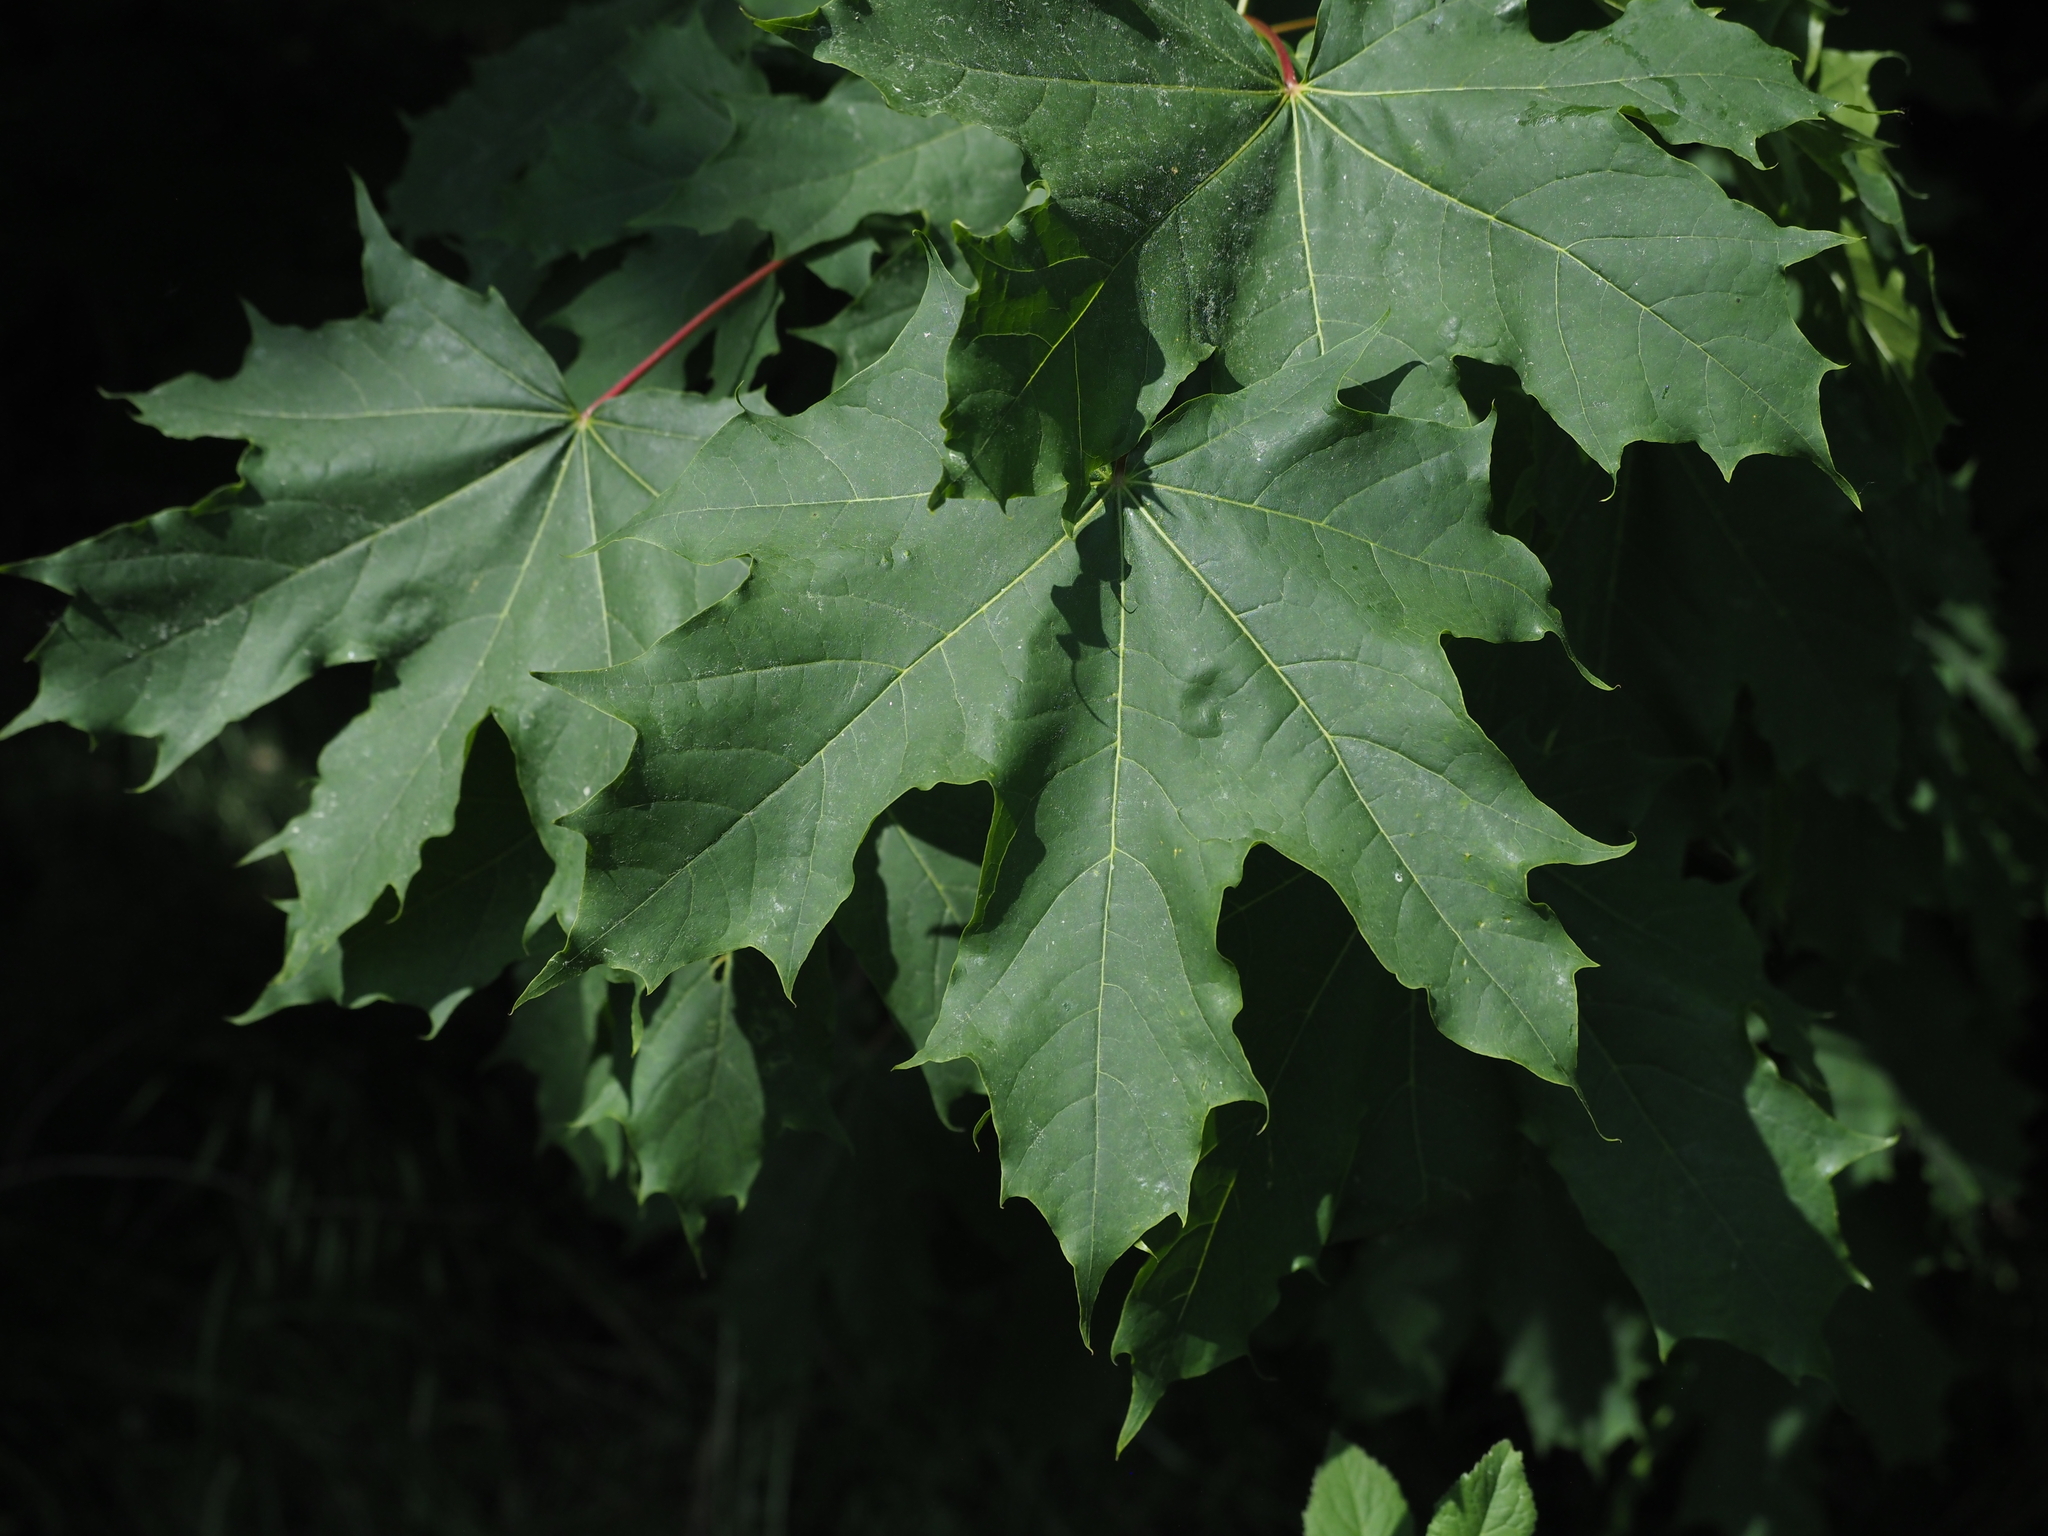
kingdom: Plantae
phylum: Tracheophyta
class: Magnoliopsida
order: Sapindales
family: Sapindaceae
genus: Acer
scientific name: Acer platanoides
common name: Norway maple
